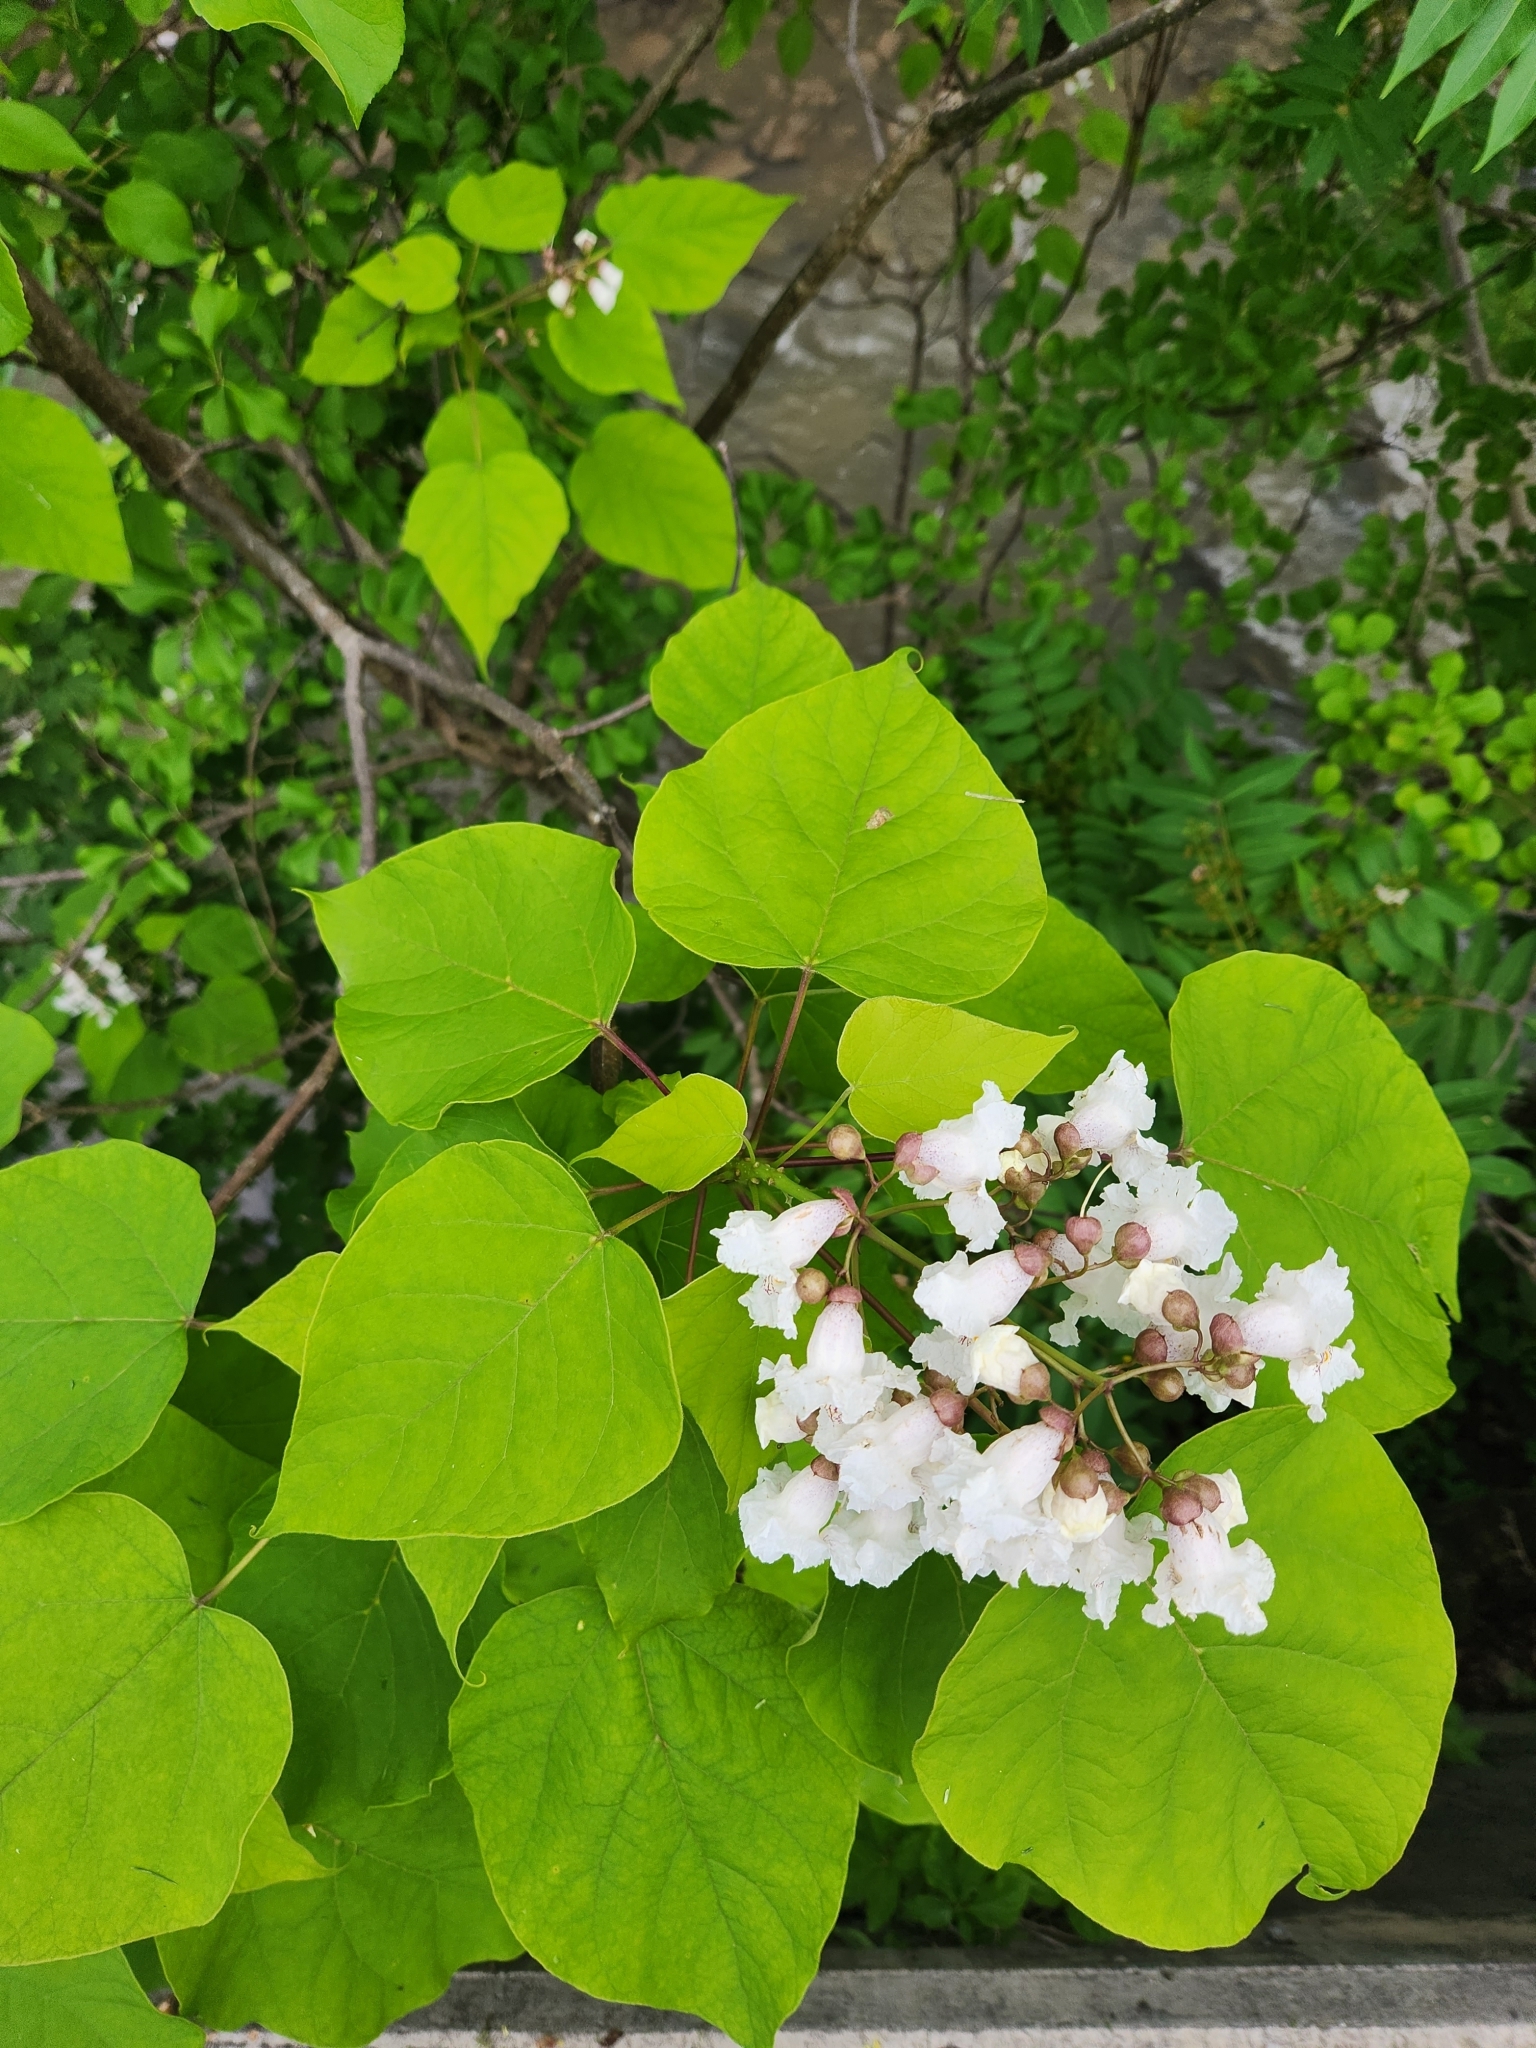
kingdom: Plantae
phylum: Tracheophyta
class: Magnoliopsida
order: Lamiales
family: Bignoniaceae
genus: Catalpa
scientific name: Catalpa speciosa
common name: Northern catalpa
